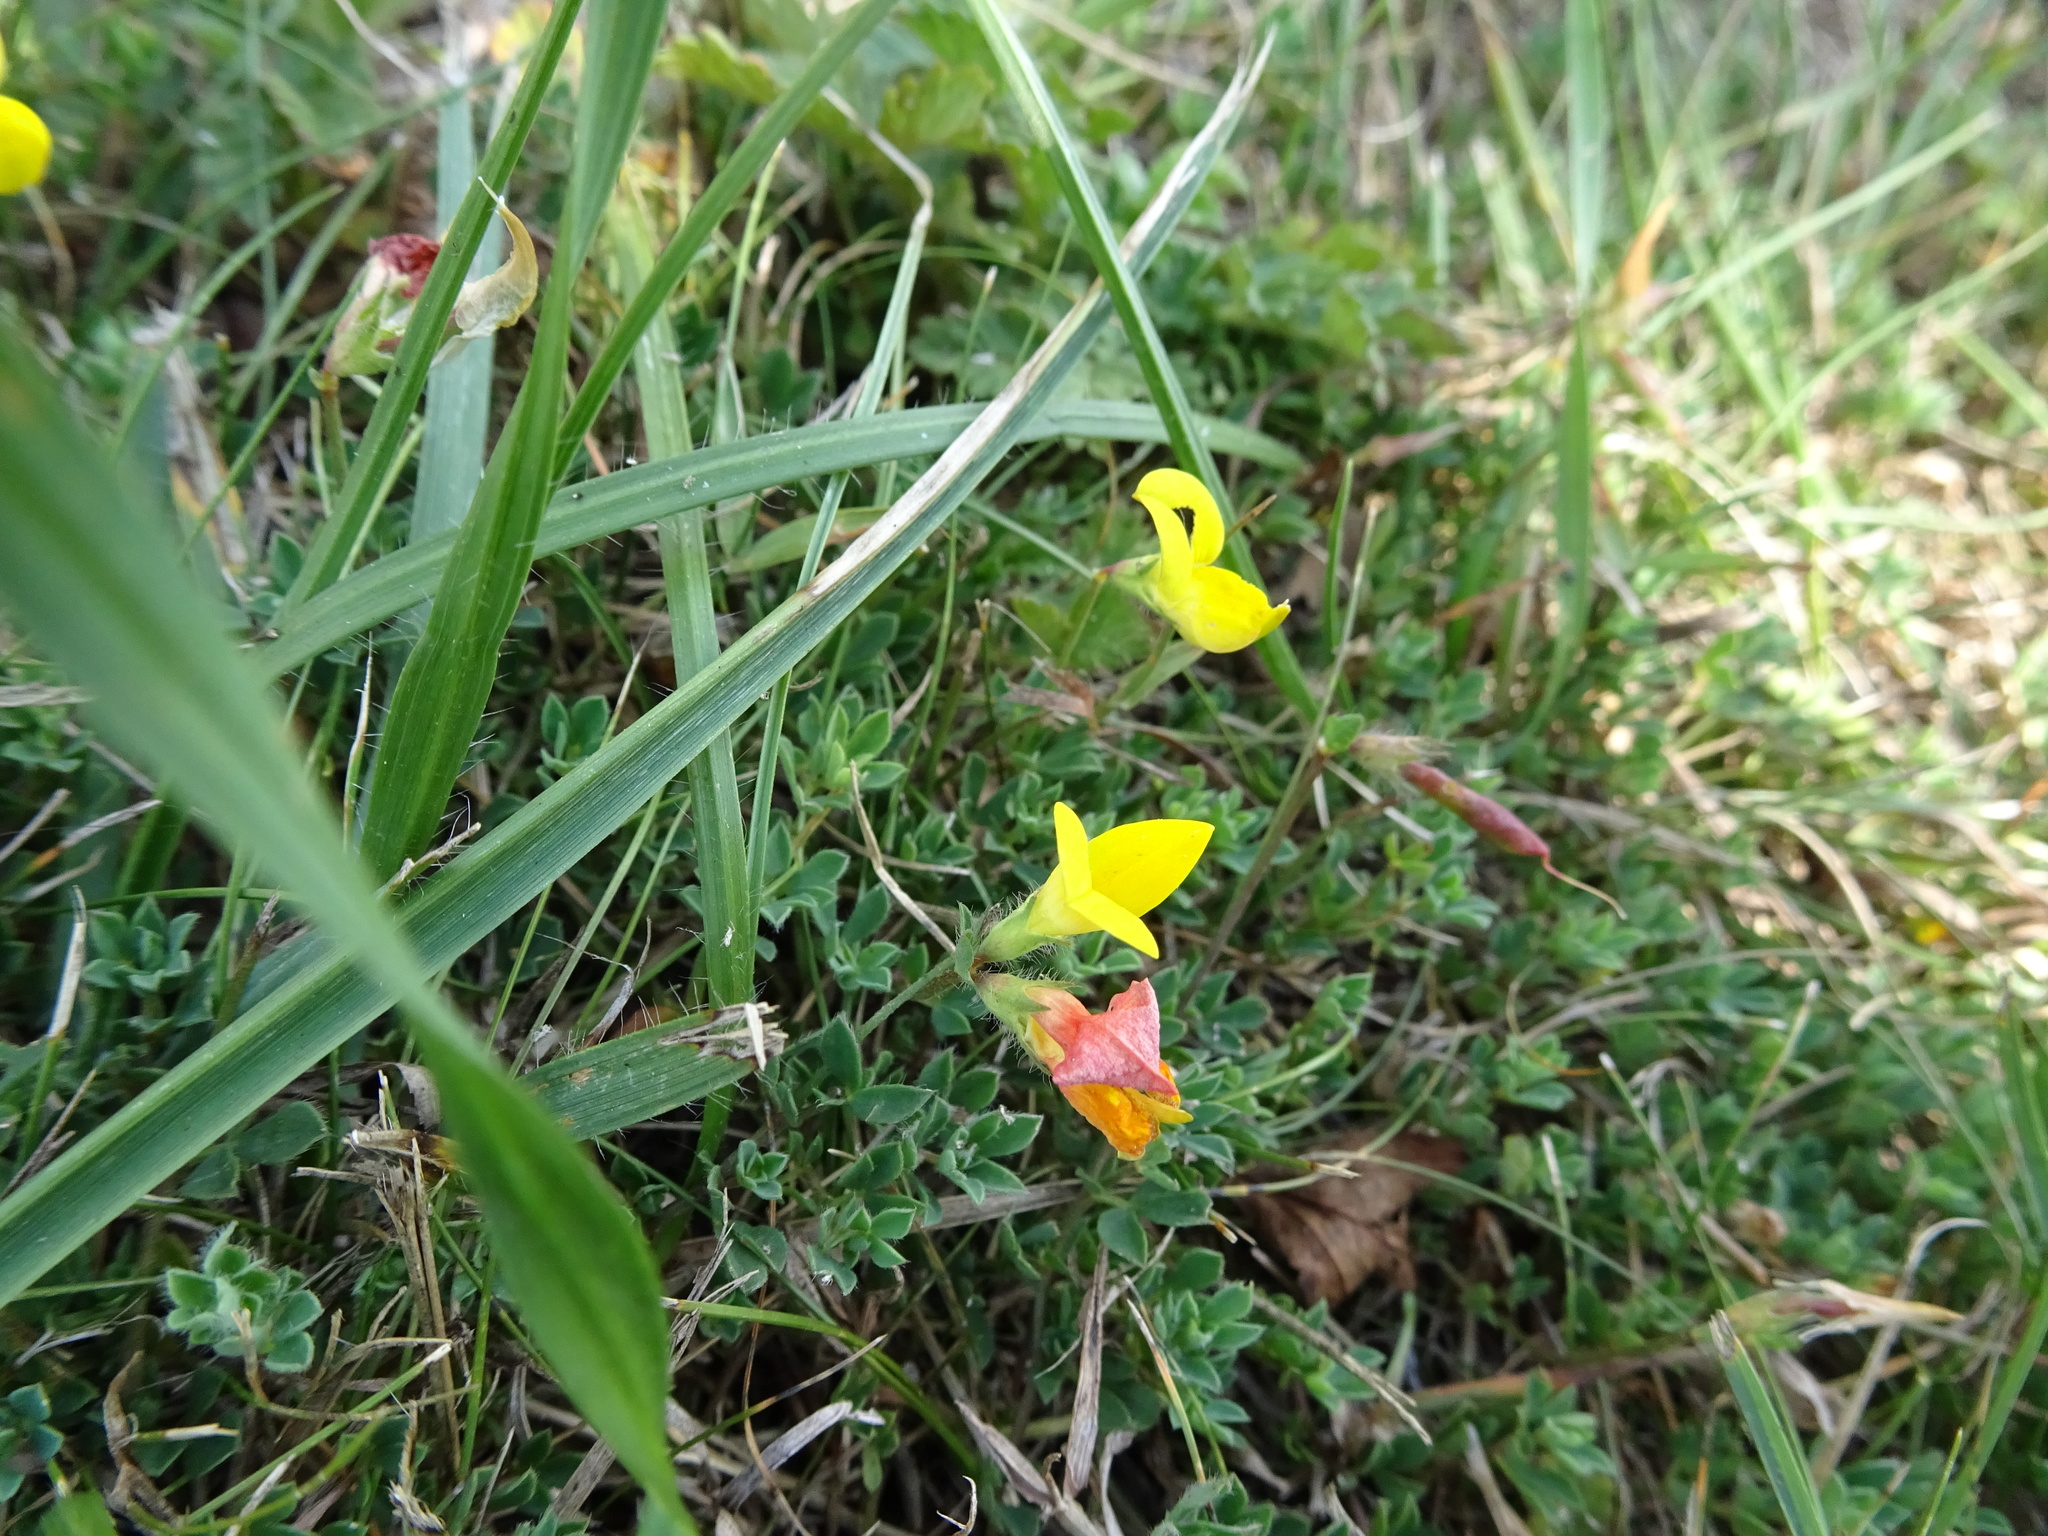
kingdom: Plantae
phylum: Tracheophyta
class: Magnoliopsida
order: Fabales
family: Fabaceae
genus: Lotus
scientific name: Lotus corniculatus
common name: Common bird's-foot-trefoil
